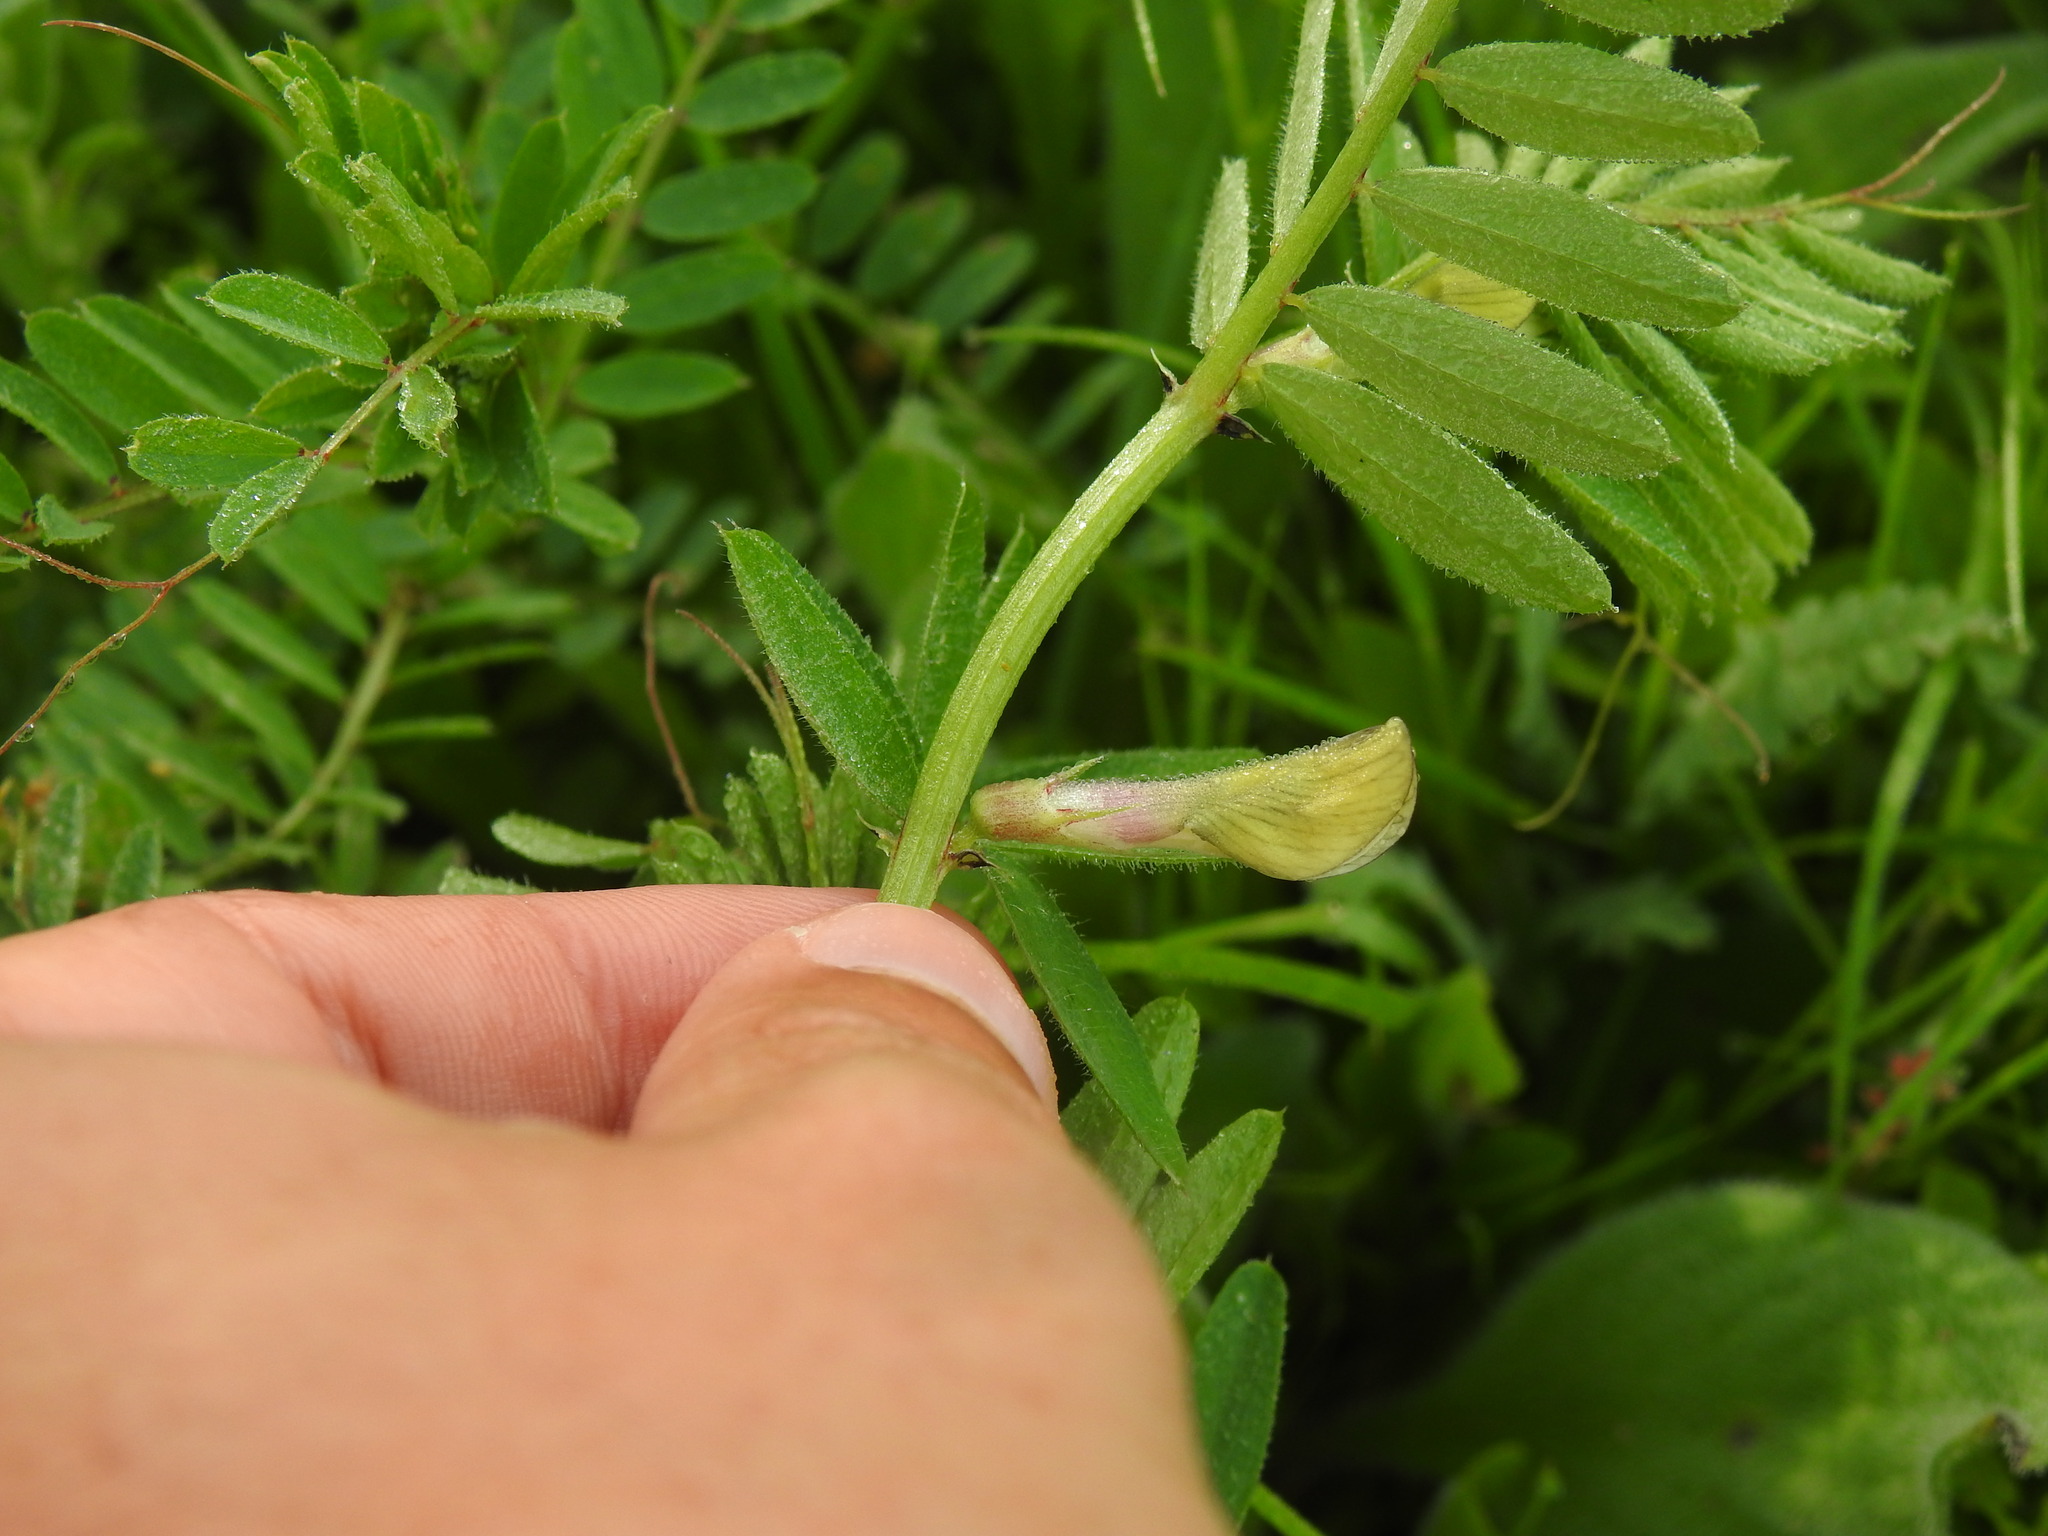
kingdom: Plantae
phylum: Tracheophyta
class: Magnoliopsida
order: Fabales
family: Fabaceae
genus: Vicia
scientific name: Vicia lutea
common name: Smooth yellow vetch
